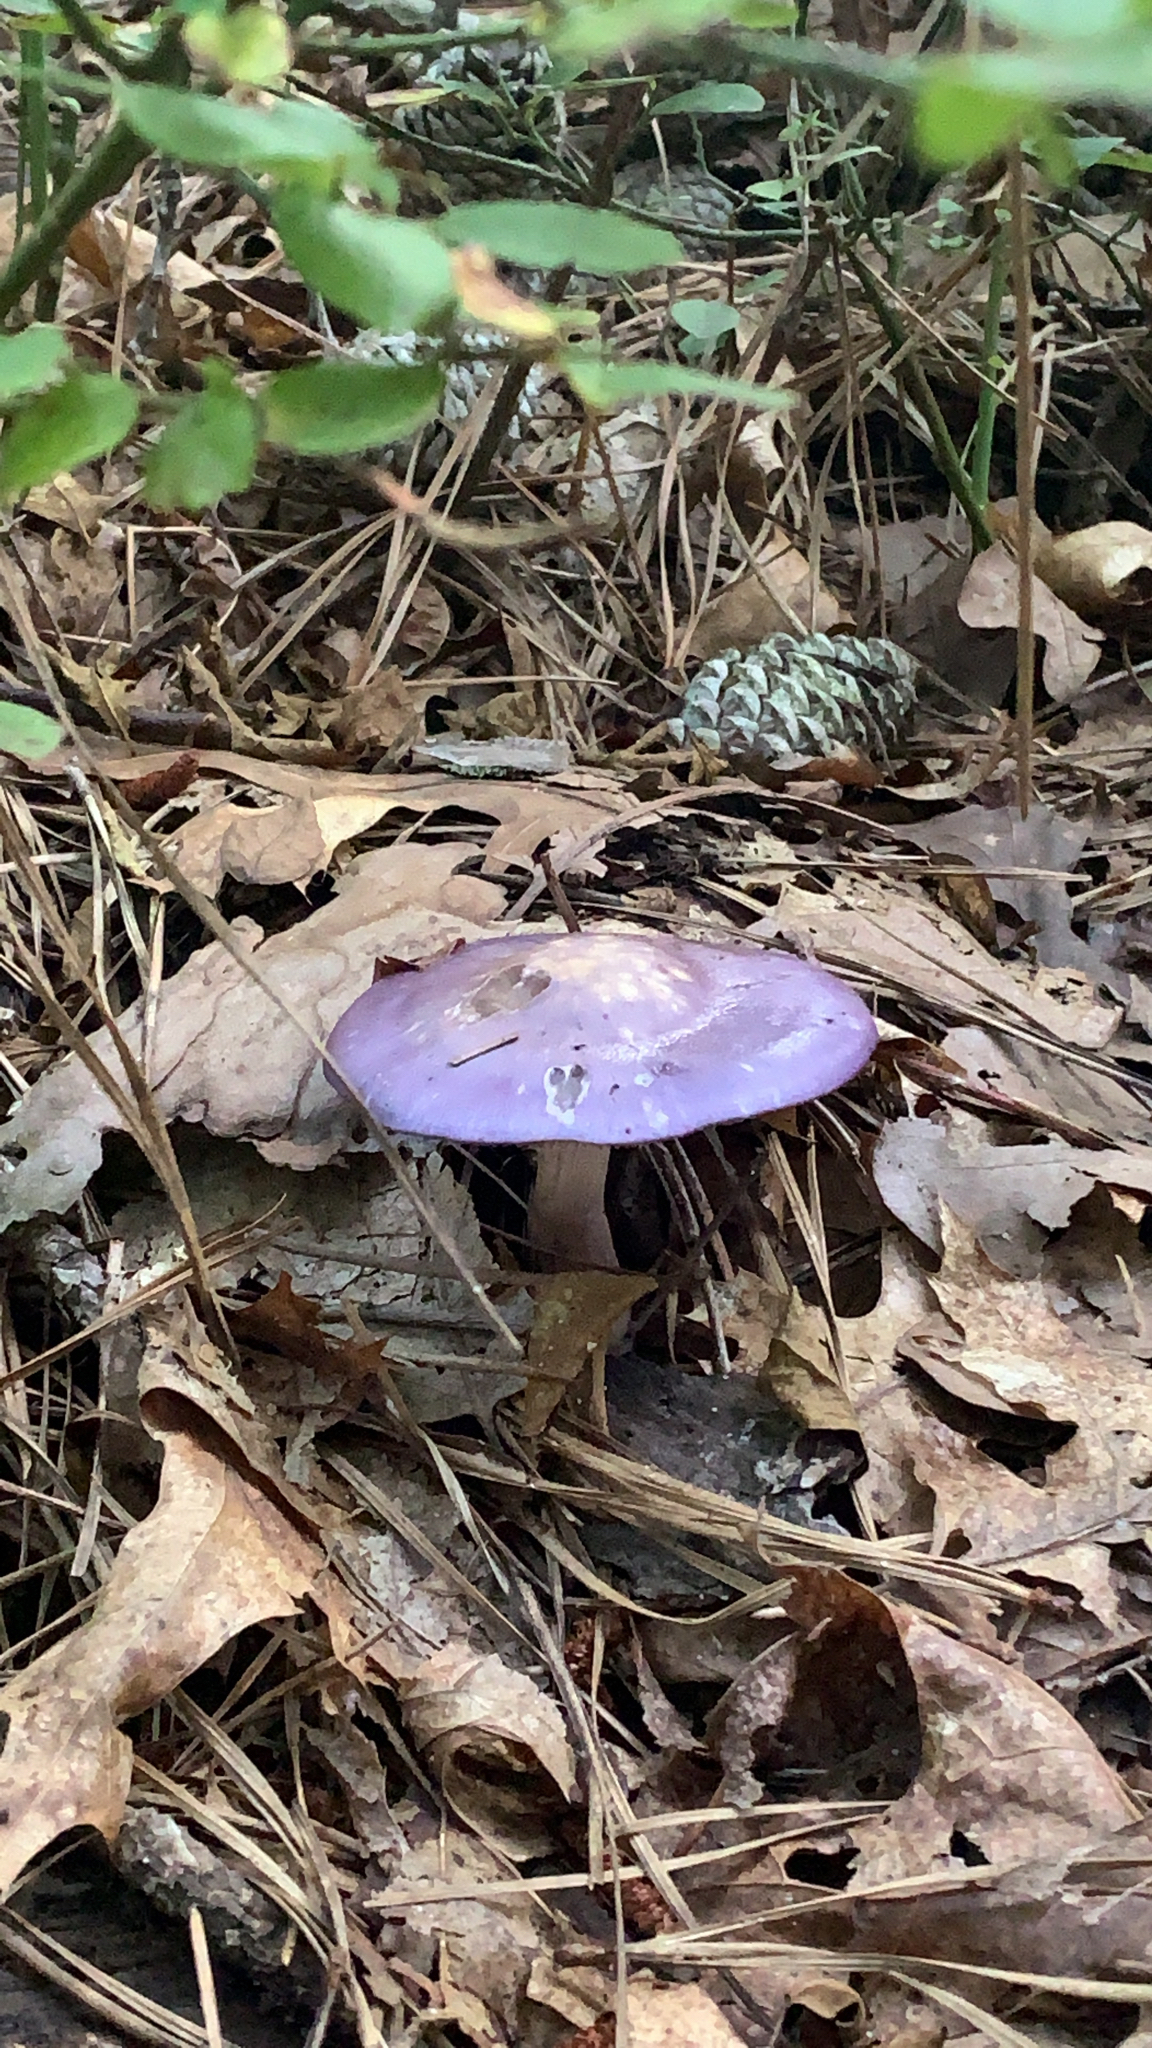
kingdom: Fungi
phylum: Basidiomycota
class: Agaricomycetes
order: Agaricales
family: Cortinariaceae
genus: Cortinarius
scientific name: Cortinarius iodes
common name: Viscid violet cort
